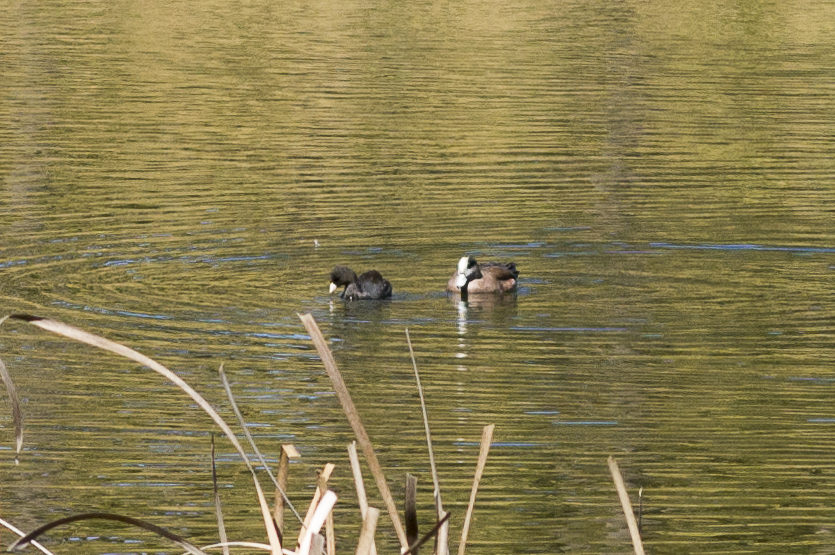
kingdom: Animalia
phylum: Chordata
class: Aves
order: Gruiformes
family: Rallidae
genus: Fulica
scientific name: Fulica americana
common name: American coot
